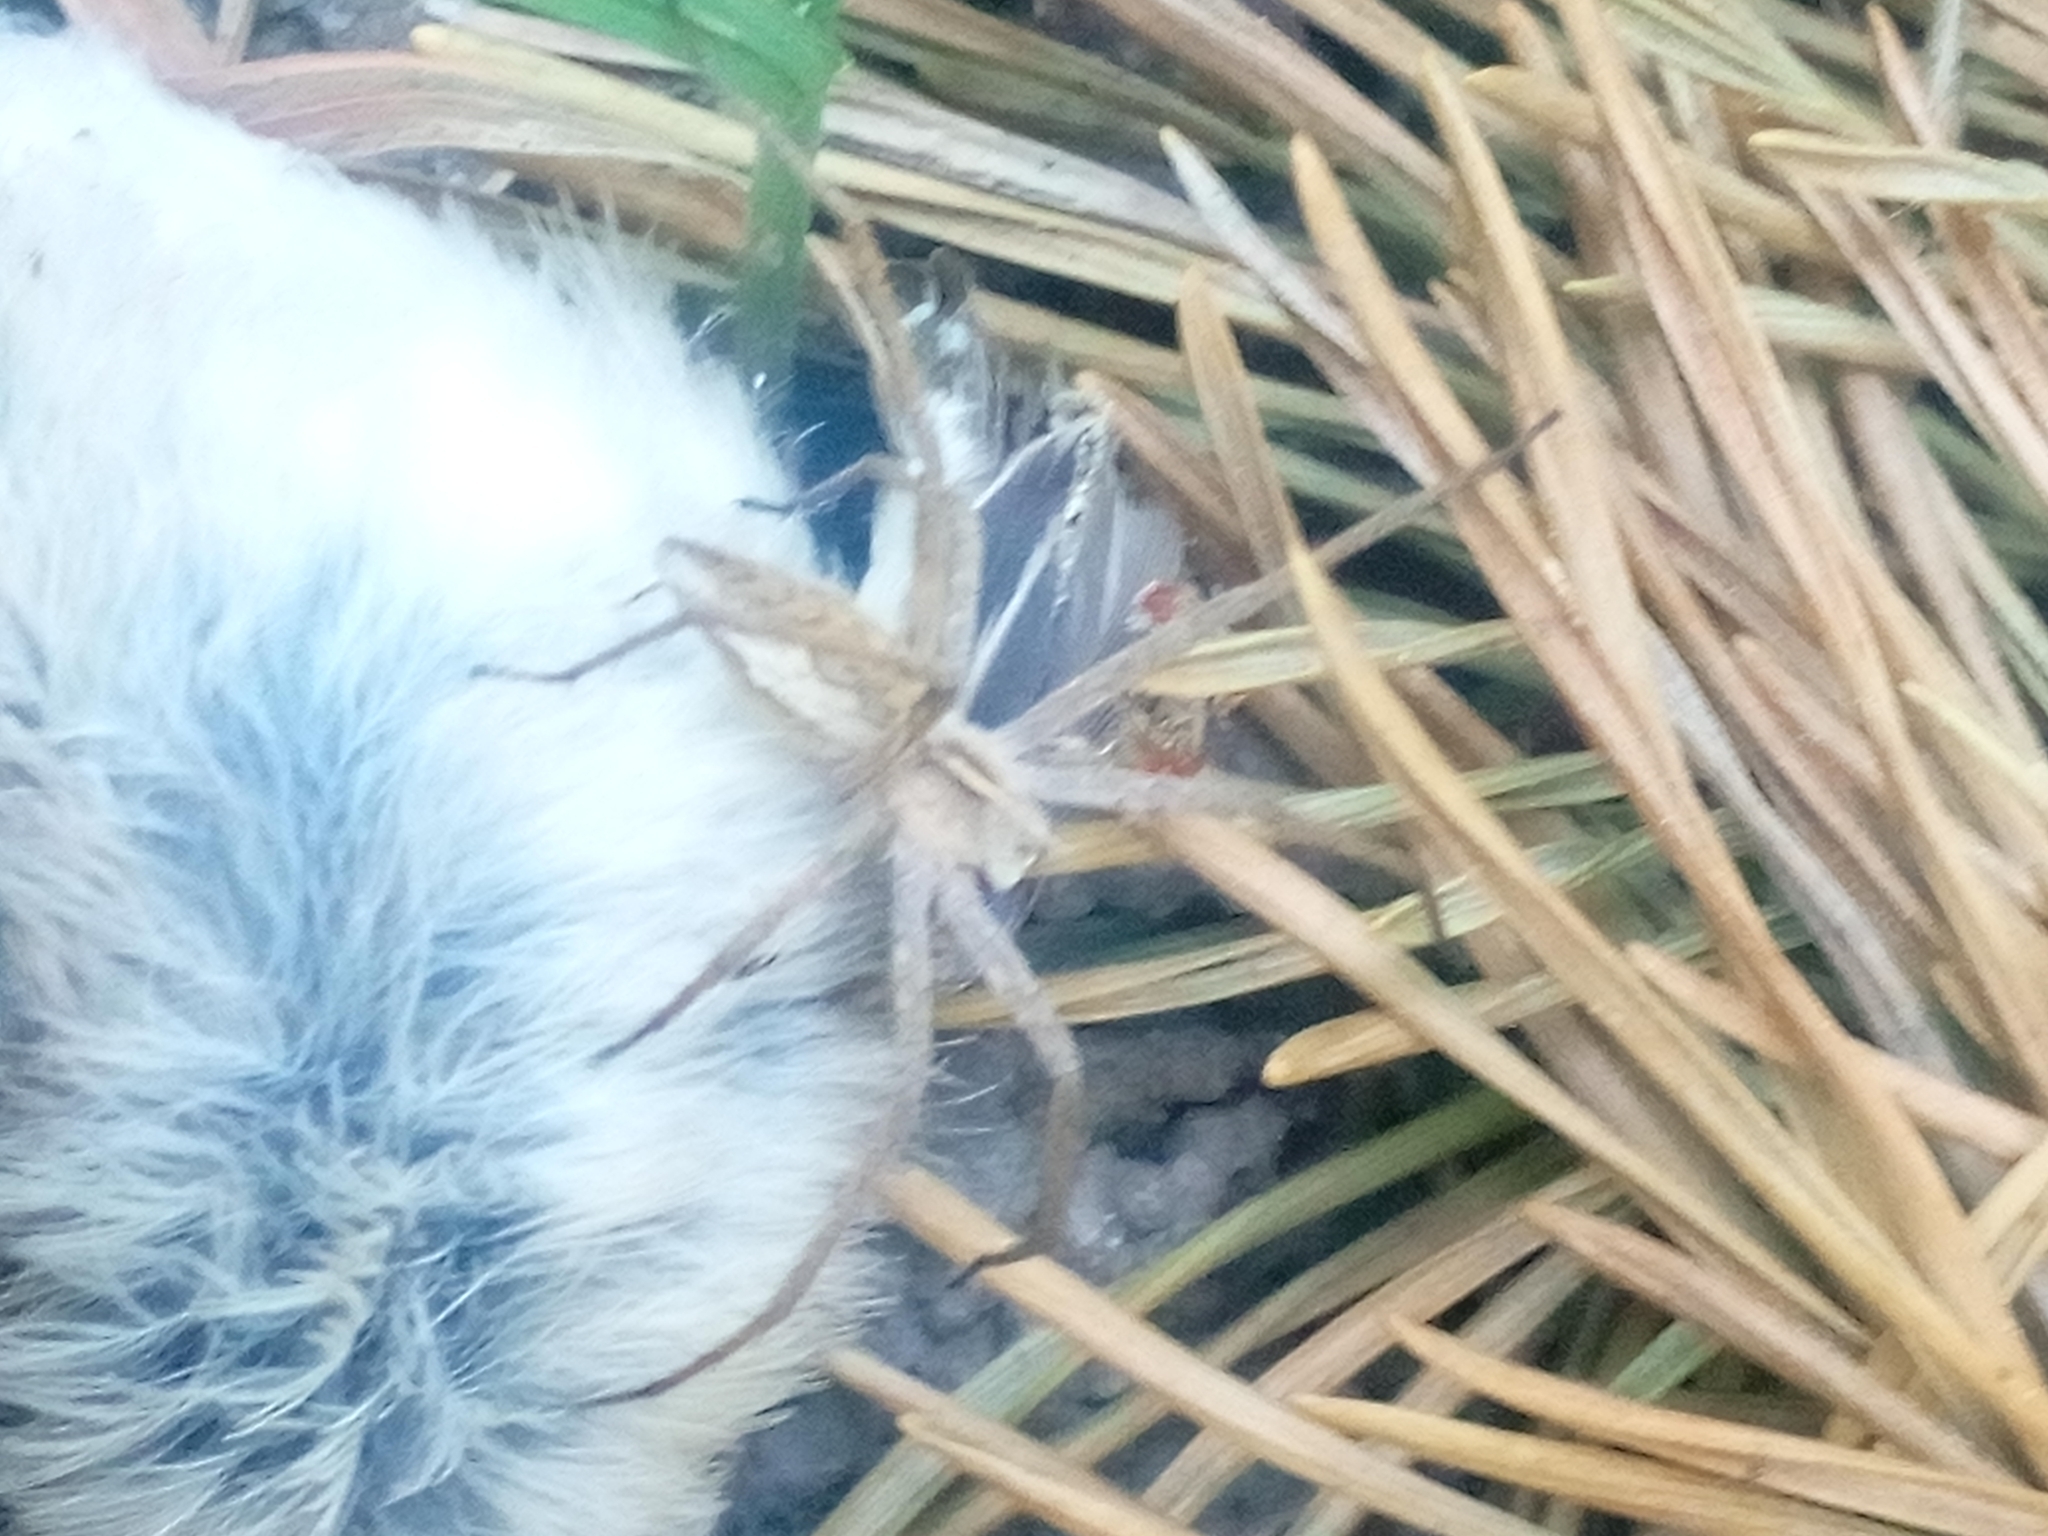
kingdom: Animalia
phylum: Arthropoda
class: Arachnida
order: Araneae
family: Pisauridae
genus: Pisaura
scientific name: Pisaura mirabilis
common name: Tent spider
